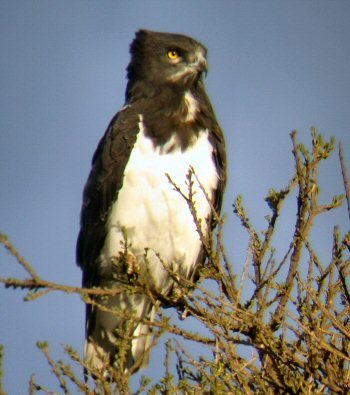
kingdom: Animalia
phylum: Chordata
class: Aves
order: Accipitriformes
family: Accipitridae
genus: Circaetus
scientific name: Circaetus pectoralis
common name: Black-chested snake eagle
